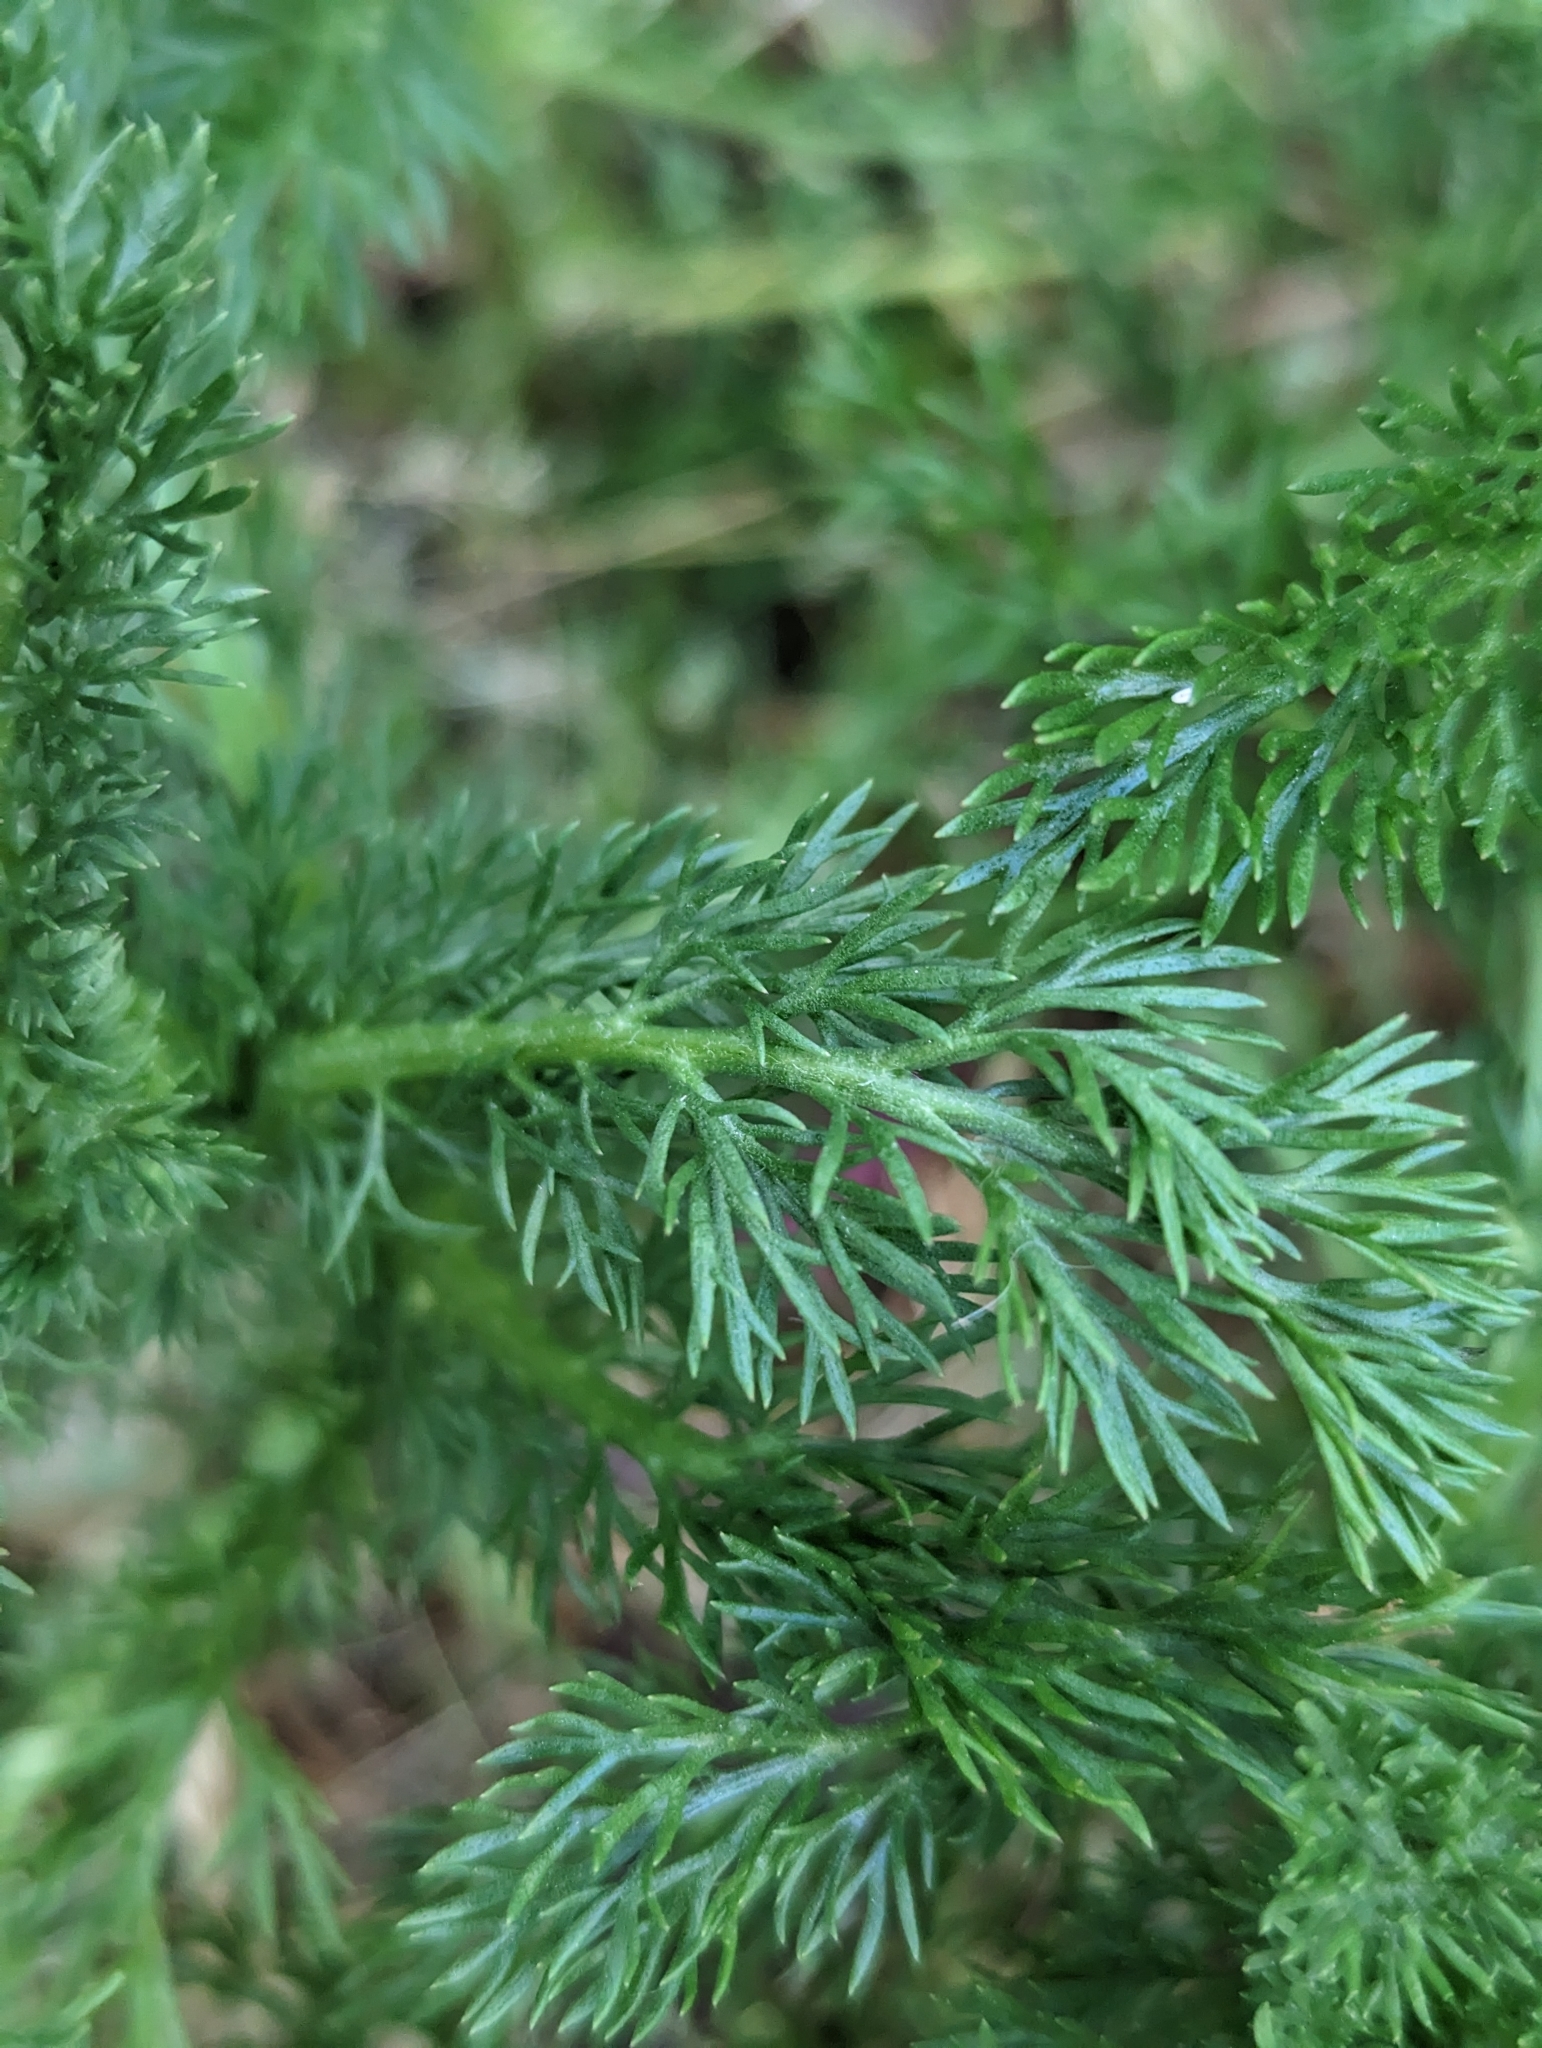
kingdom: Plantae
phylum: Tracheophyta
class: Magnoliopsida
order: Asterales
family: Asteraceae
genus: Matricaria
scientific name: Matricaria discoidea
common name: Disc mayweed
